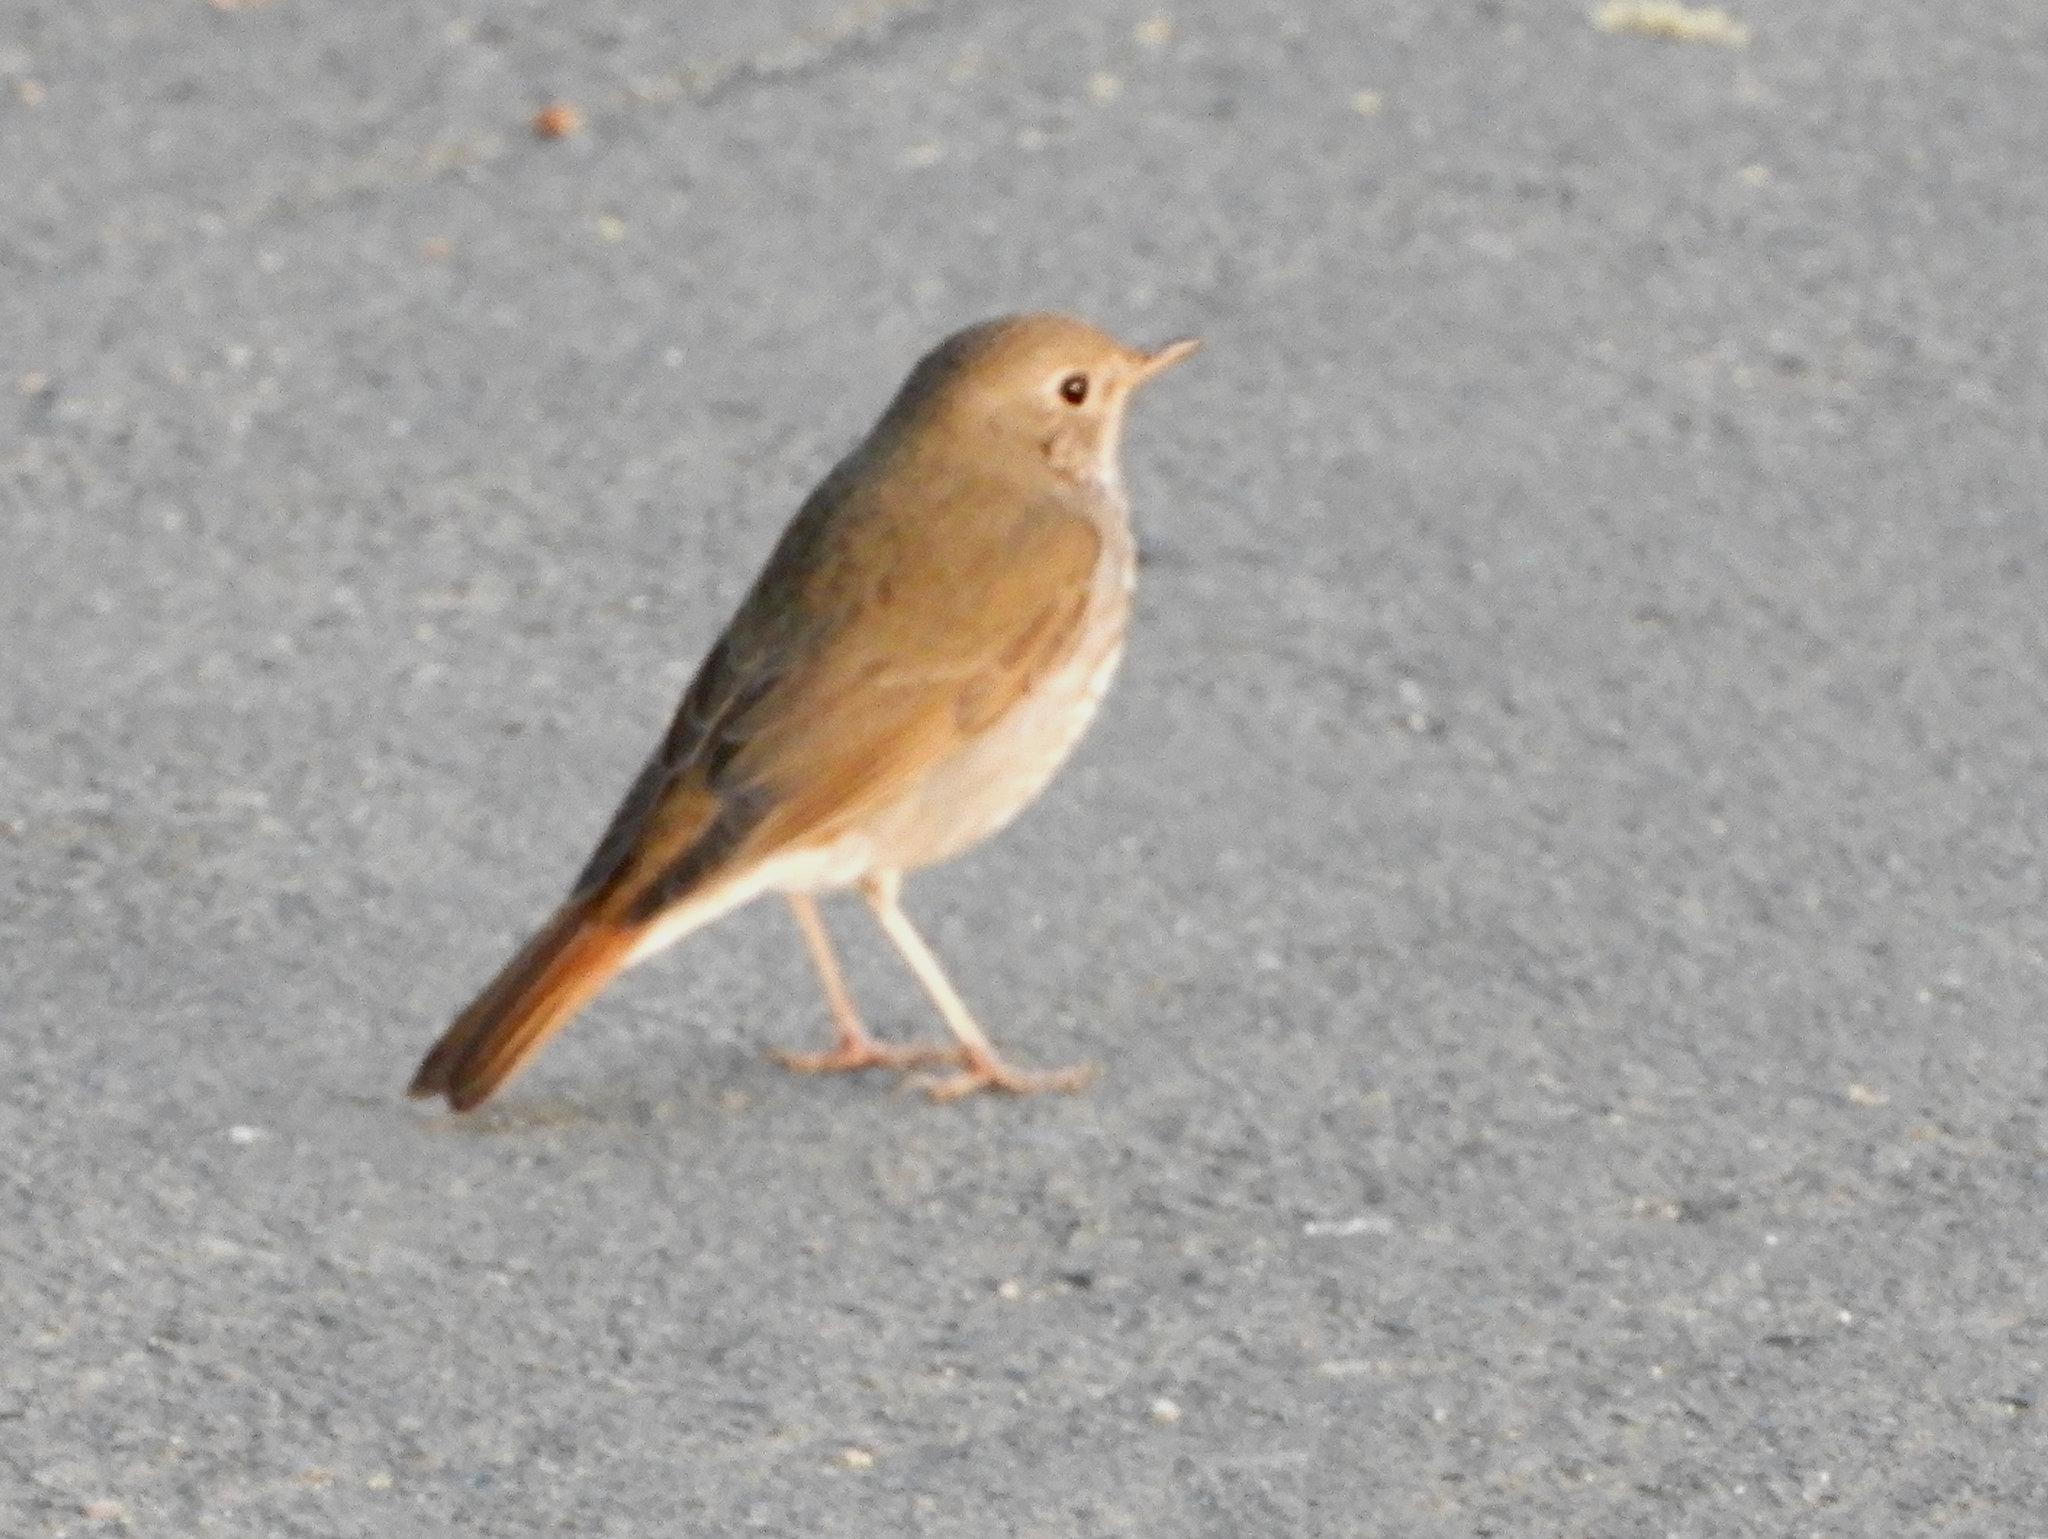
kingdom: Animalia
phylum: Chordata
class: Aves
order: Passeriformes
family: Turdidae
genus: Catharus
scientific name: Catharus guttatus
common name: Hermit thrush
